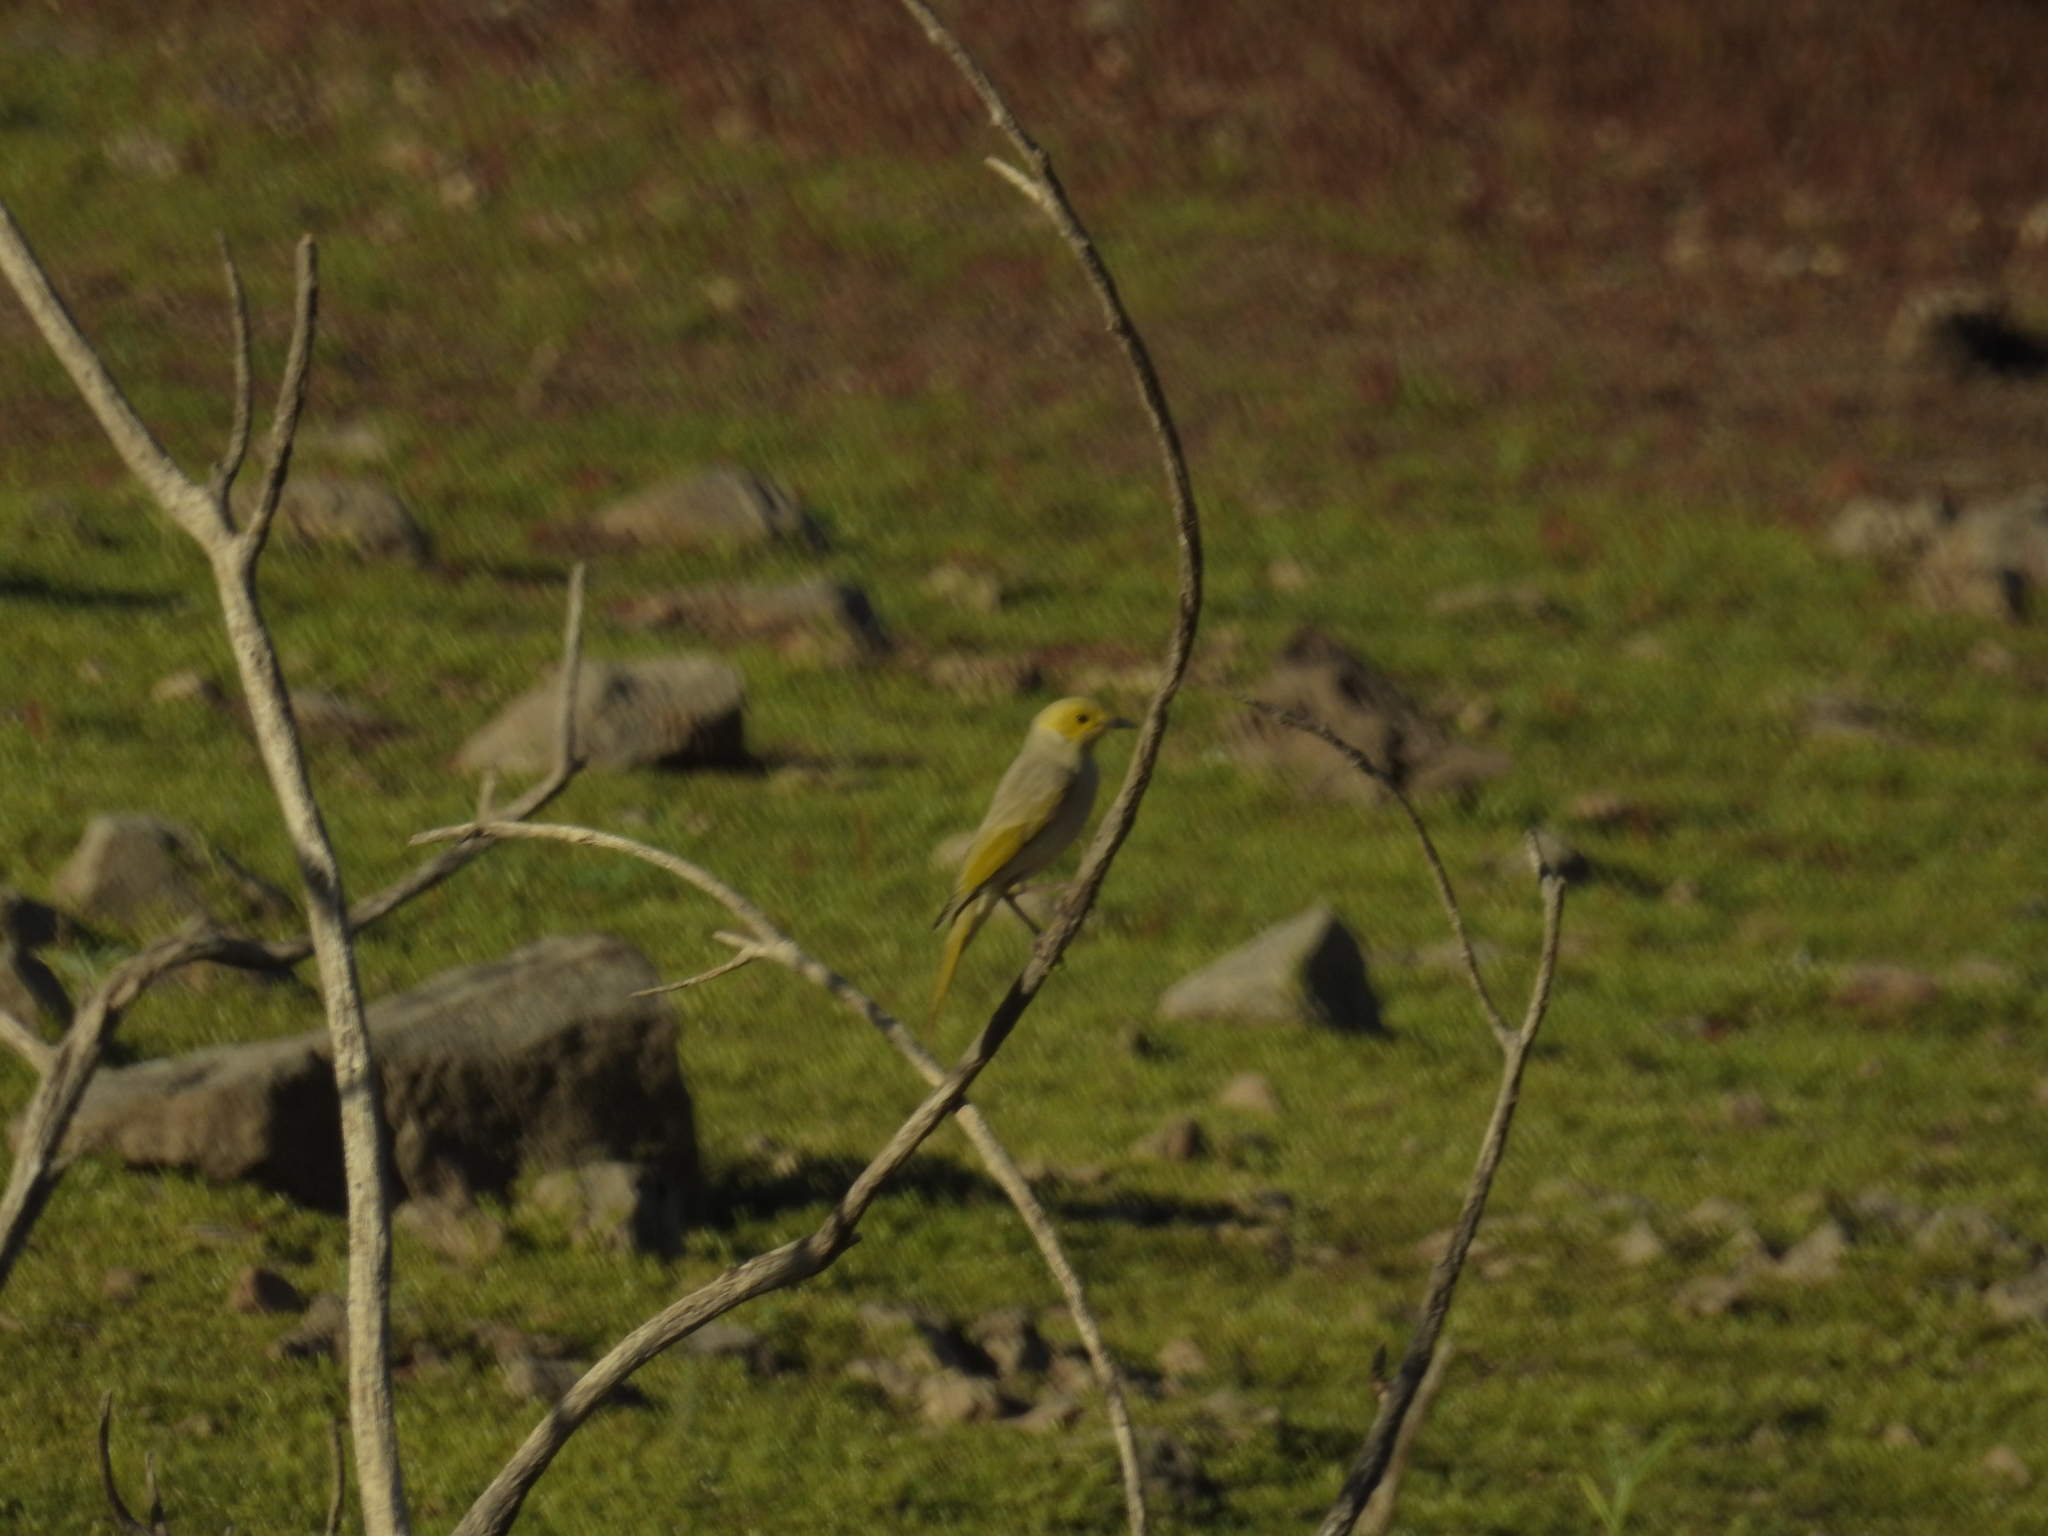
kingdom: Animalia
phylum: Chordata
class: Aves
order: Passeriformes
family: Meliphagidae
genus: Ptilotula
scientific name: Ptilotula penicillata
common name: White-plumed honeyeater
